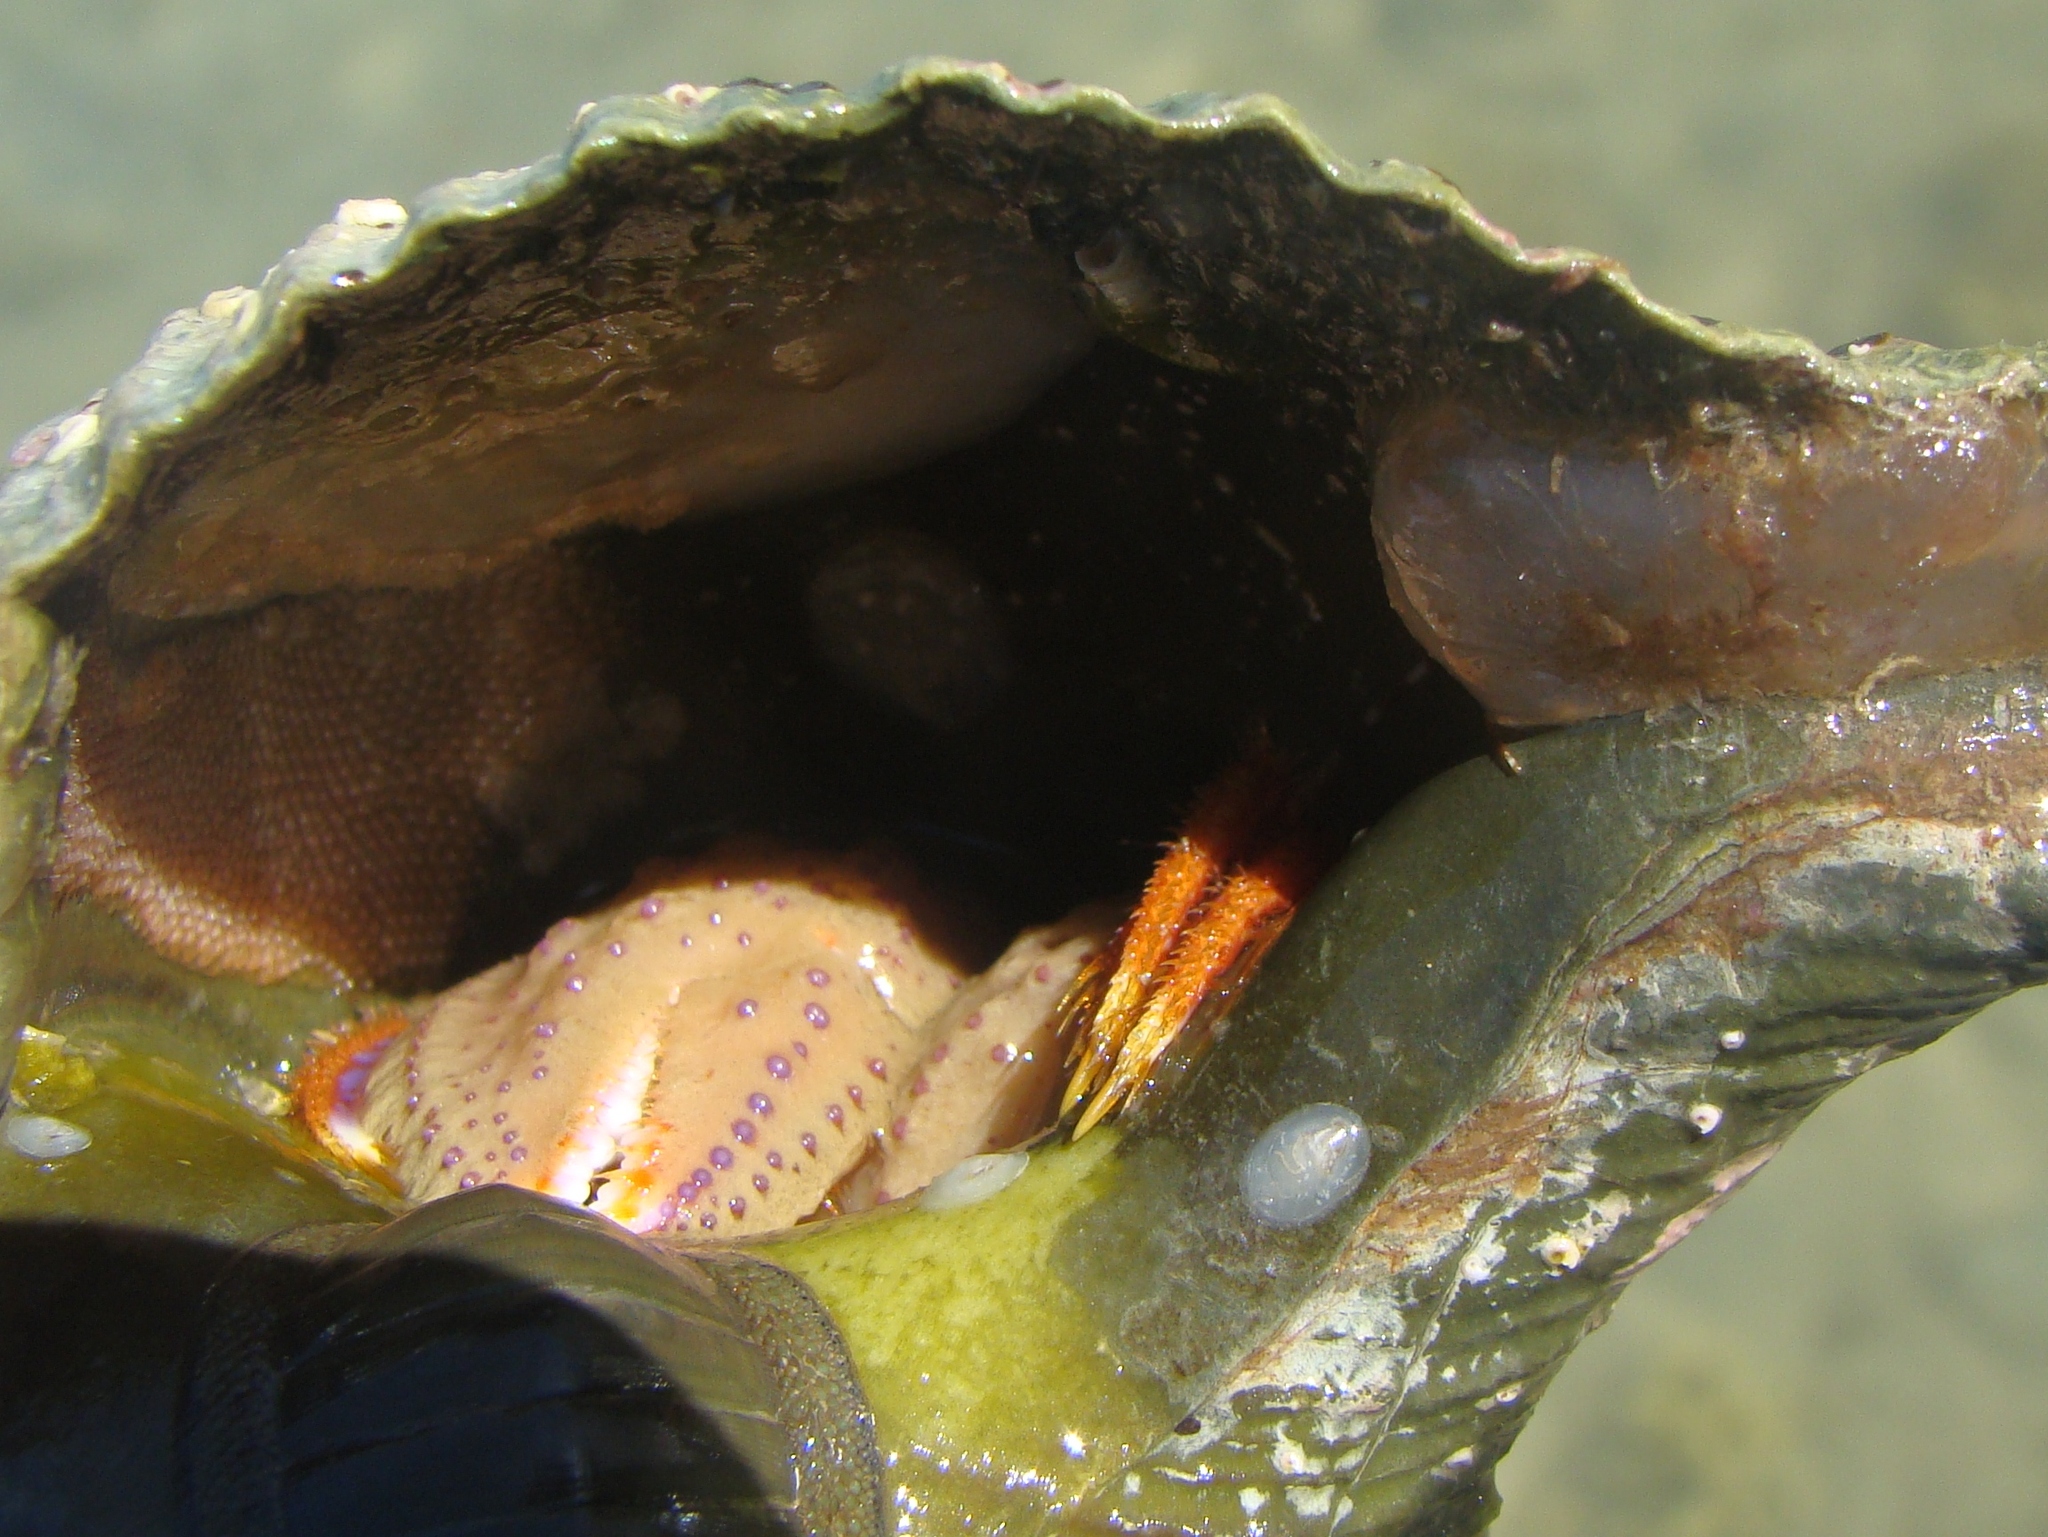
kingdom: Animalia
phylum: Mollusca
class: Gastropoda
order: Littorinimorpha
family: Calyptraeidae
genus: Maoricrypta
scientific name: Maoricrypta sodalis
